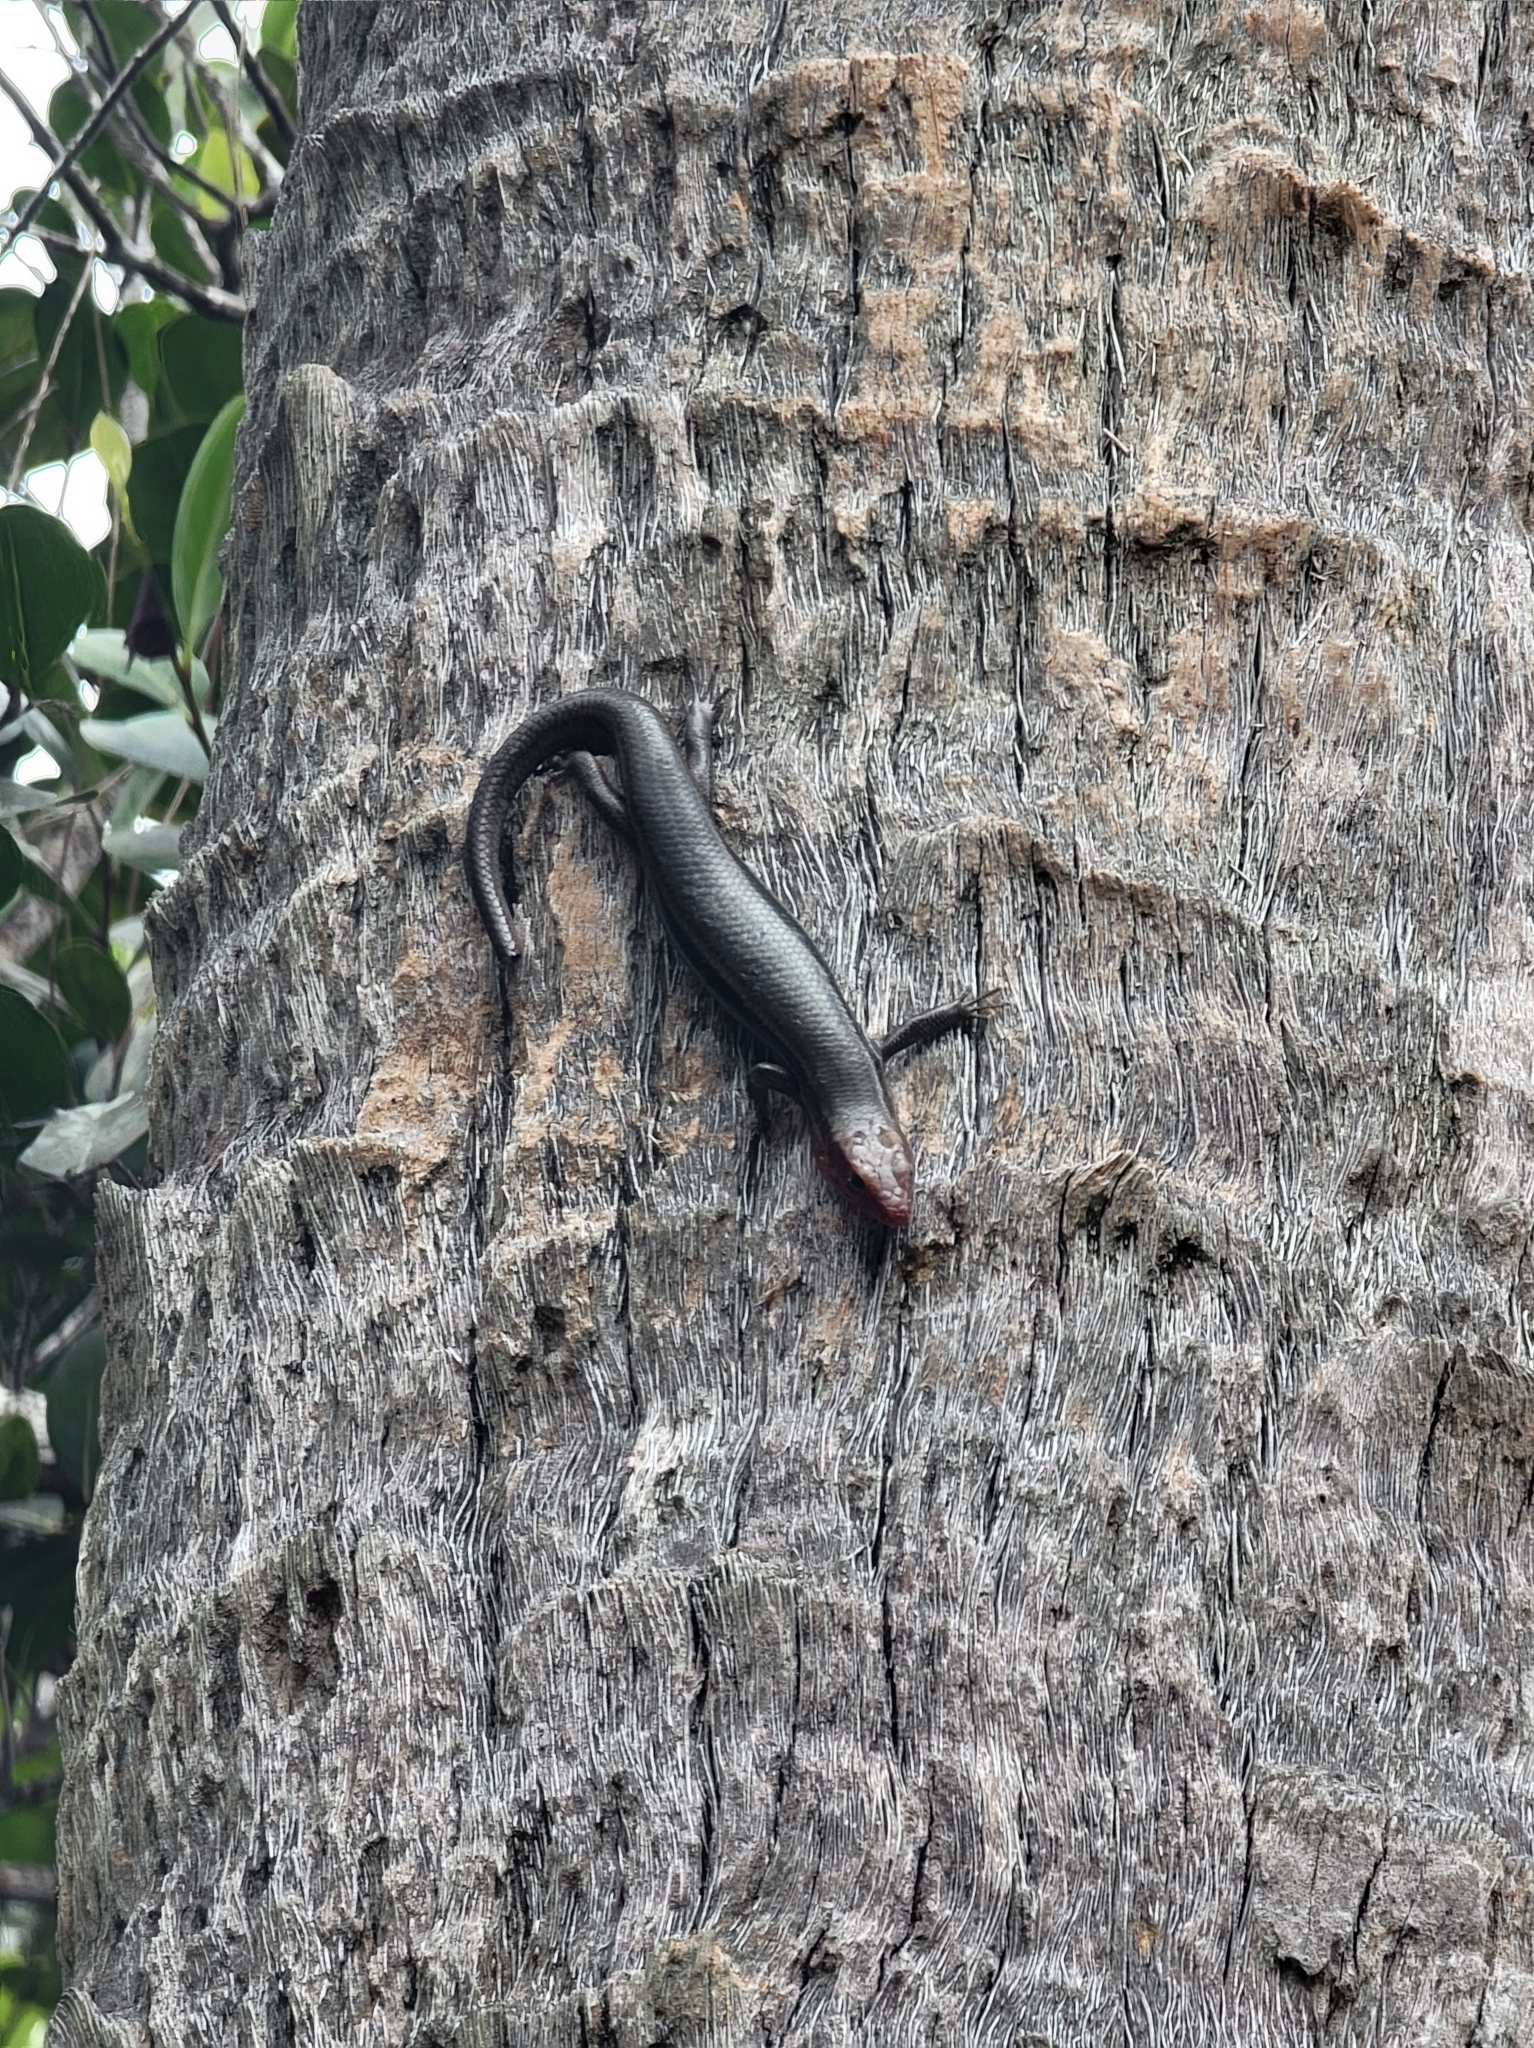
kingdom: Animalia
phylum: Chordata
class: Squamata
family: Scincidae
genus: Plestiodon
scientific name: Plestiodon inexpectatus
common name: Southeastern five-lined skink
